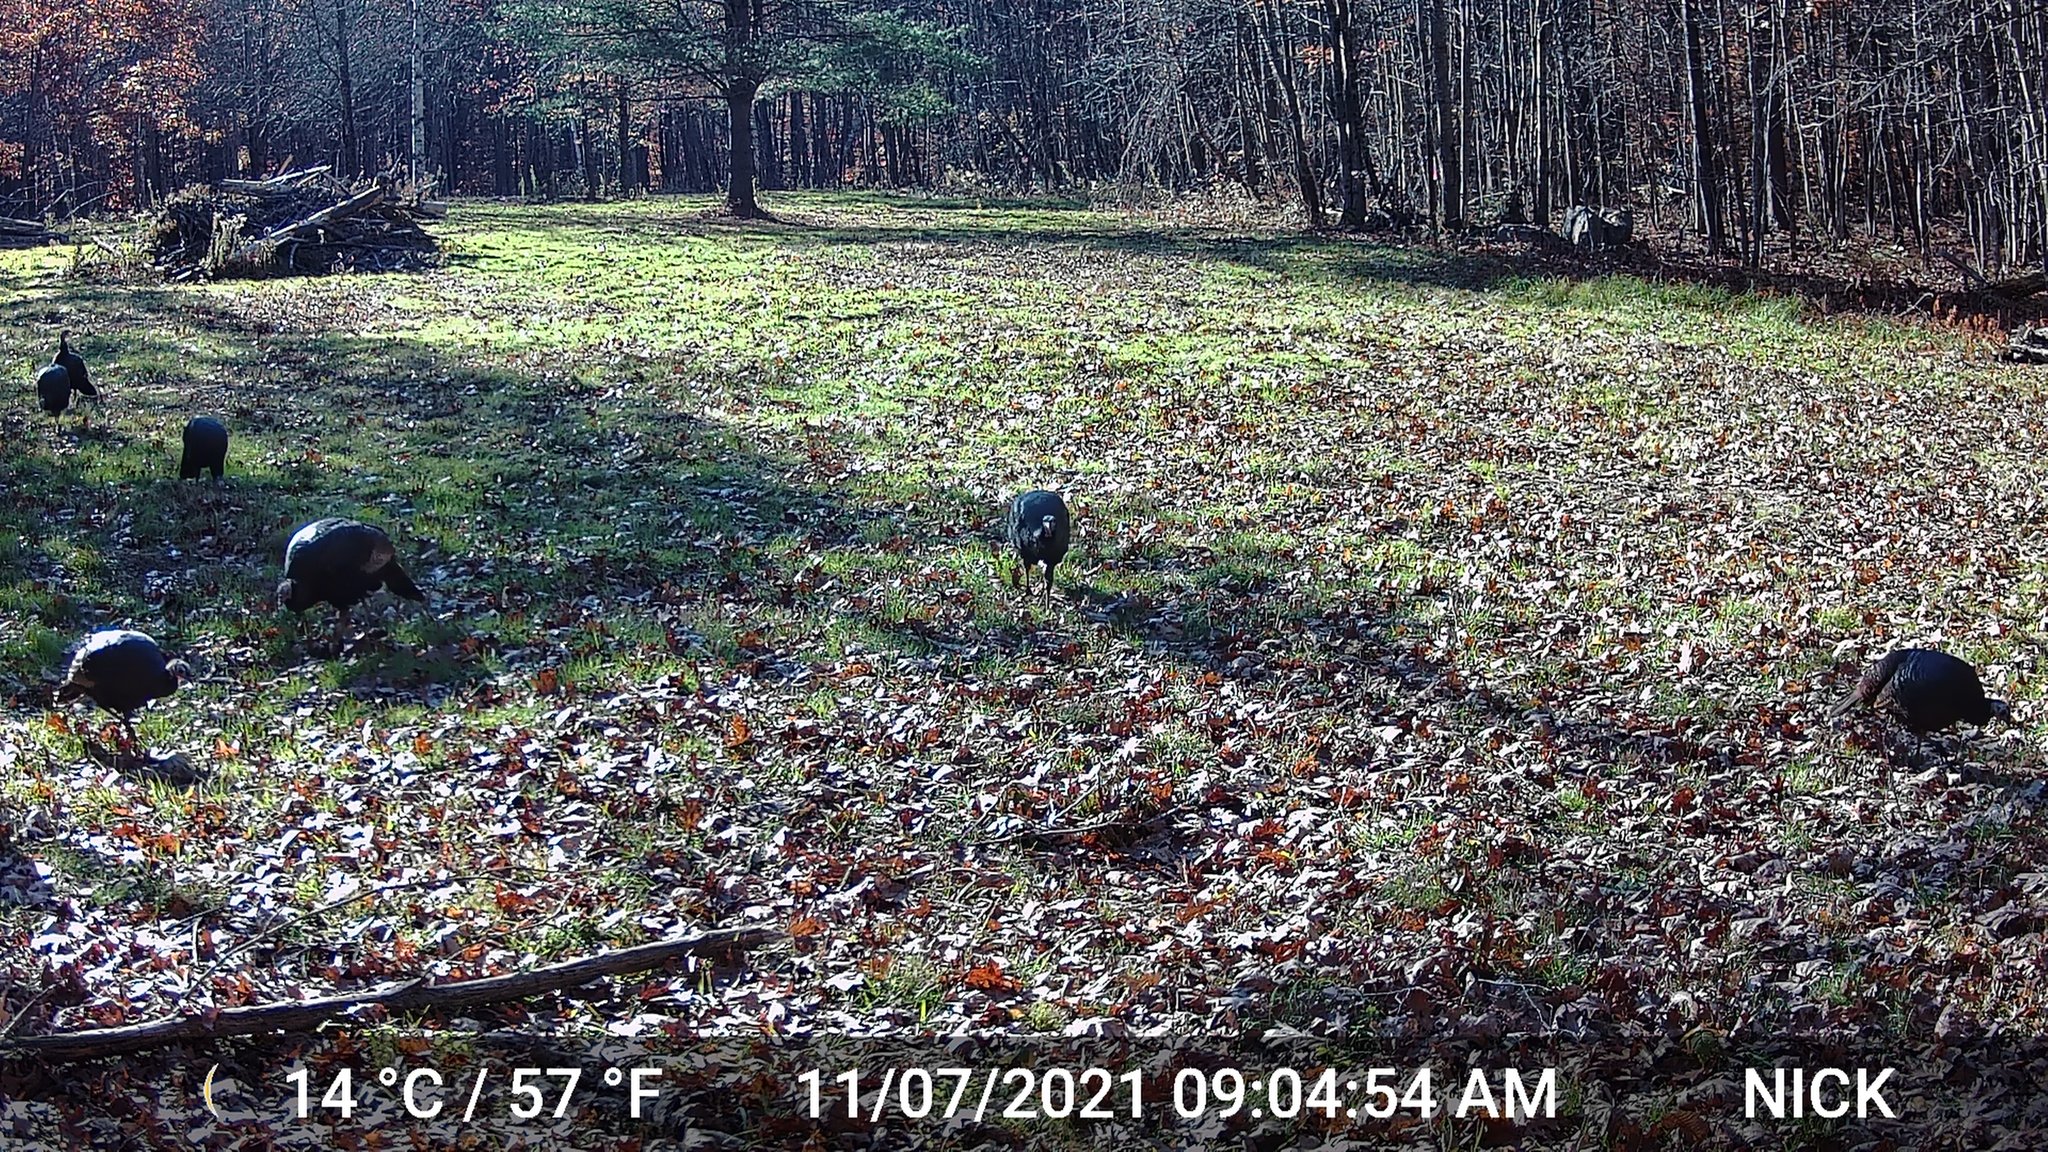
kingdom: Animalia
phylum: Chordata
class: Aves
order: Galliformes
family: Phasianidae
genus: Meleagris
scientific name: Meleagris gallopavo
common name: Wild turkey
